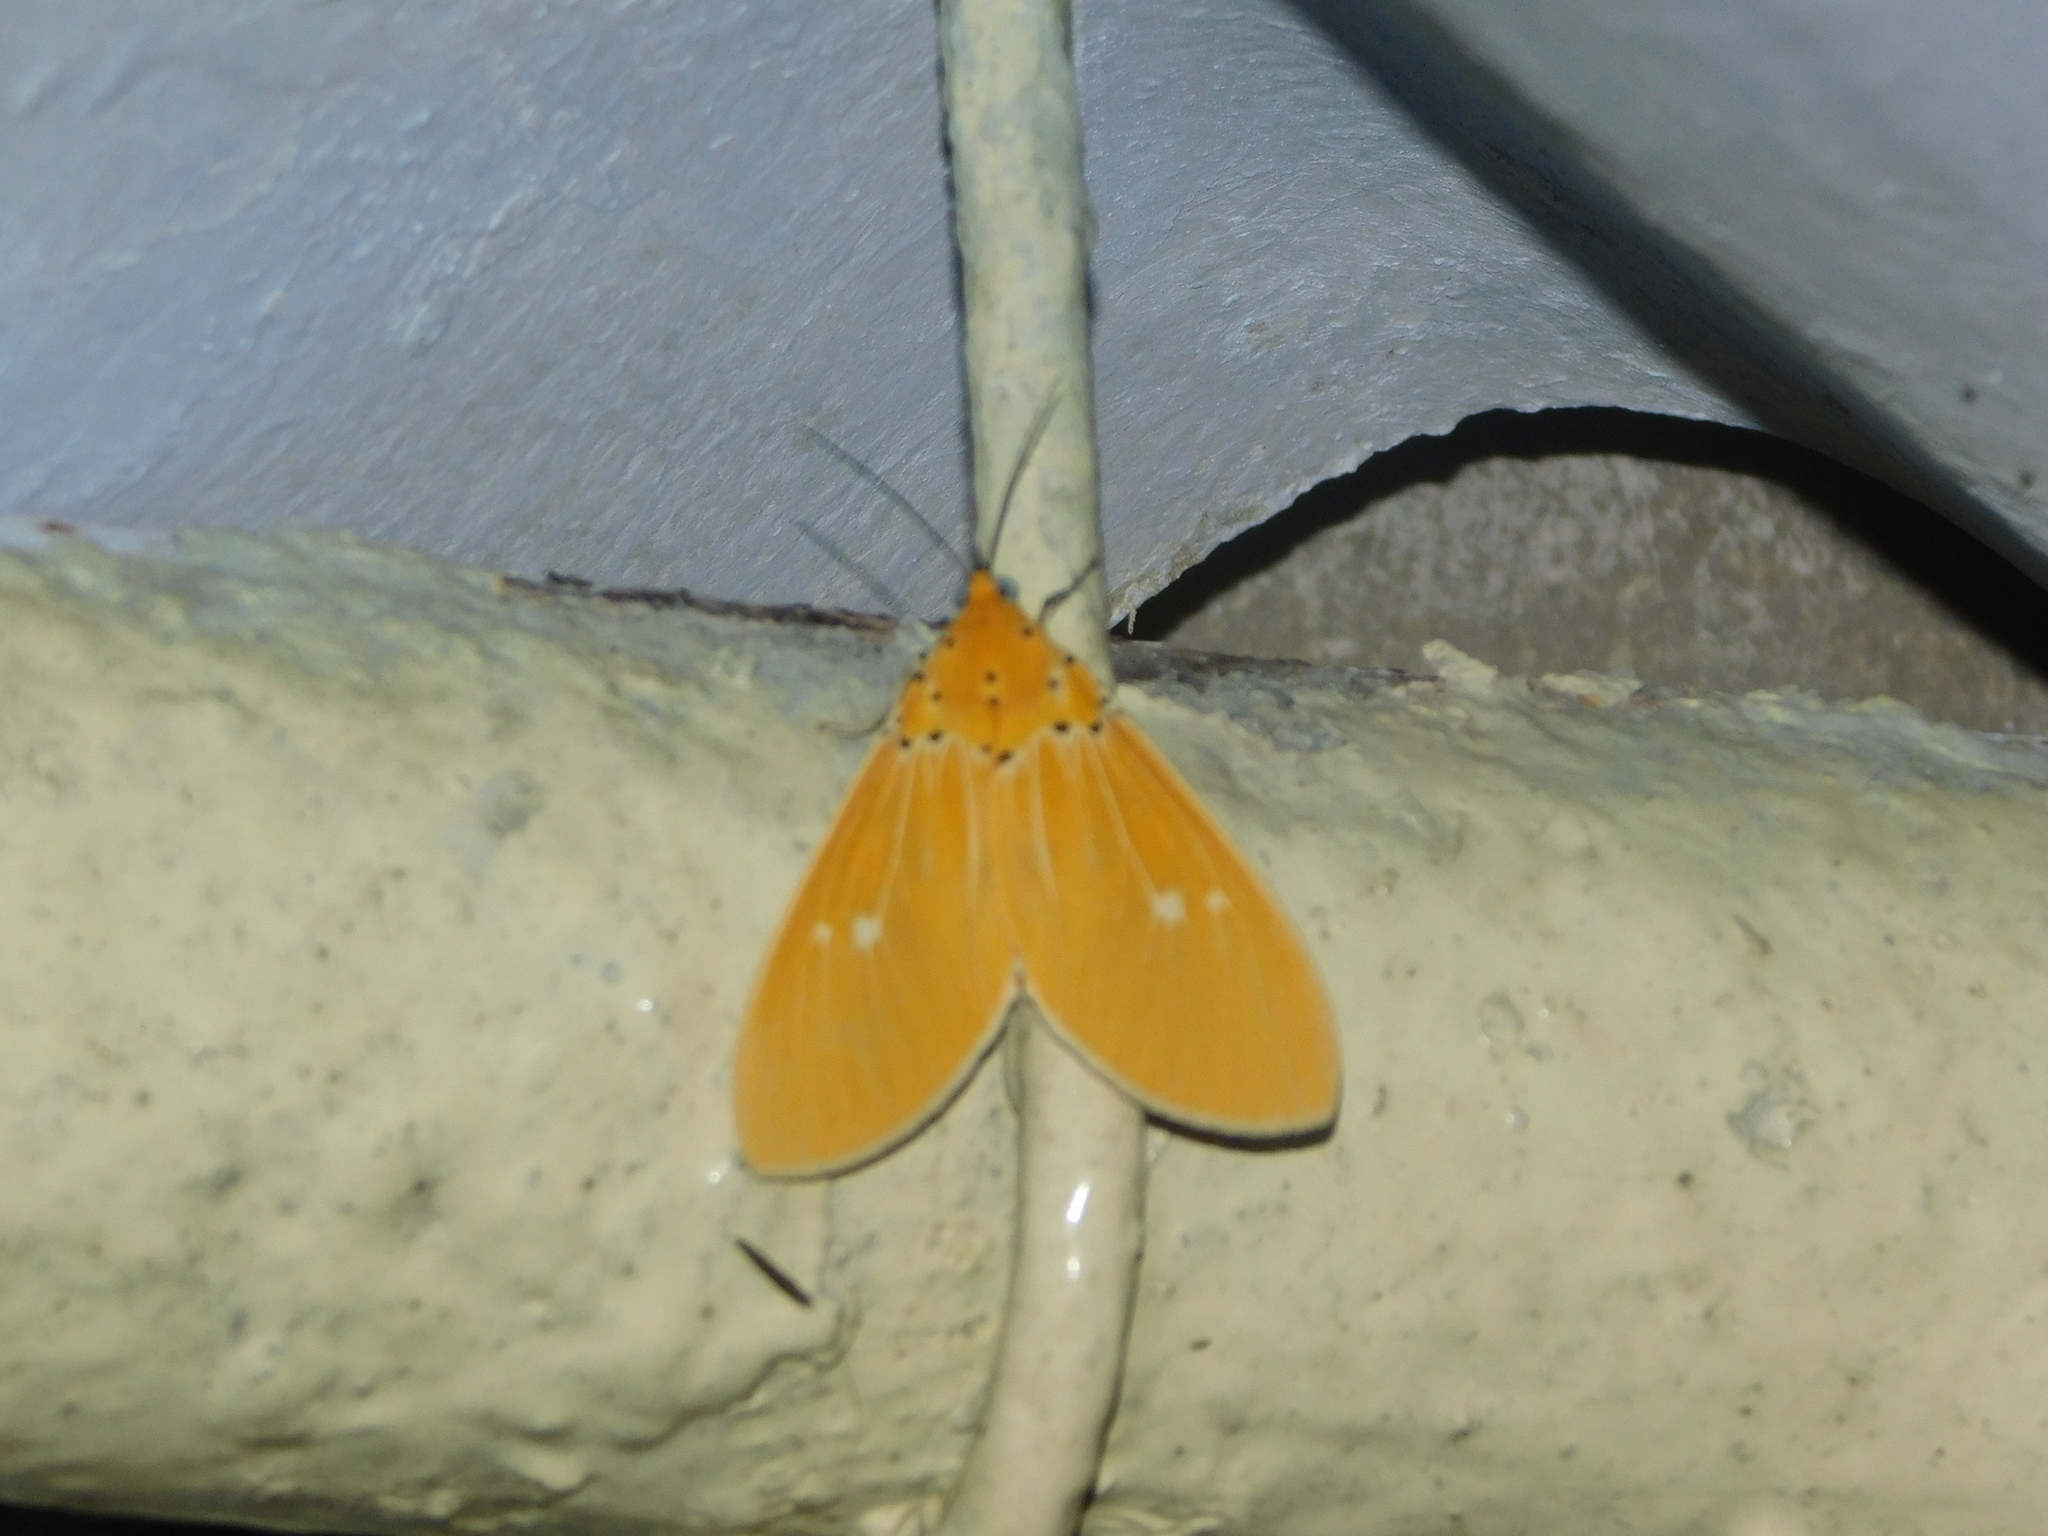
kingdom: Animalia
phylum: Arthropoda
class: Insecta
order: Lepidoptera
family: Erebidae
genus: Asota
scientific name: Asota sericea
